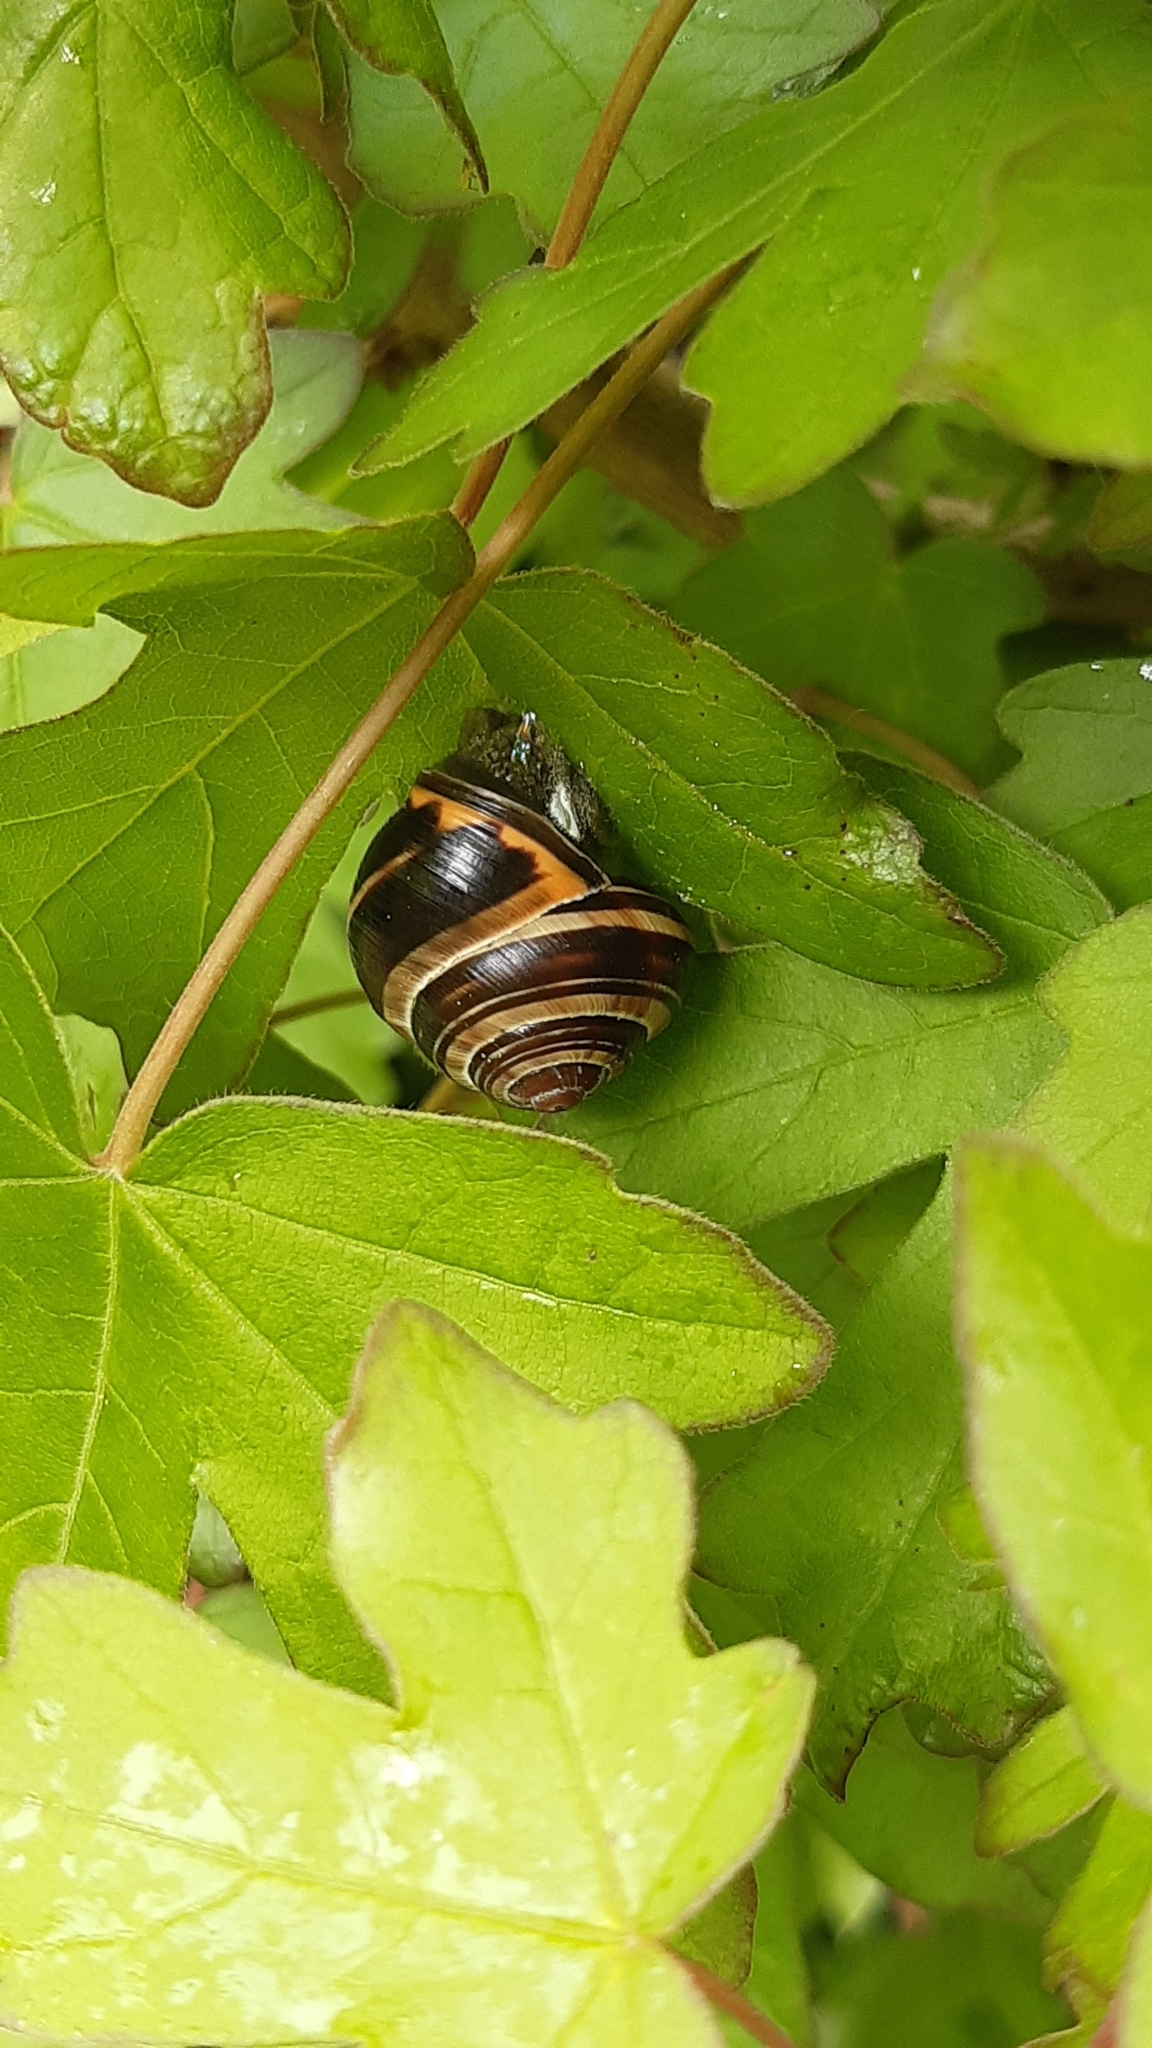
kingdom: Animalia
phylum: Mollusca
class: Gastropoda
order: Stylommatophora
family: Helicidae
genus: Cepaea
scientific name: Cepaea nemoralis
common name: Grovesnail
